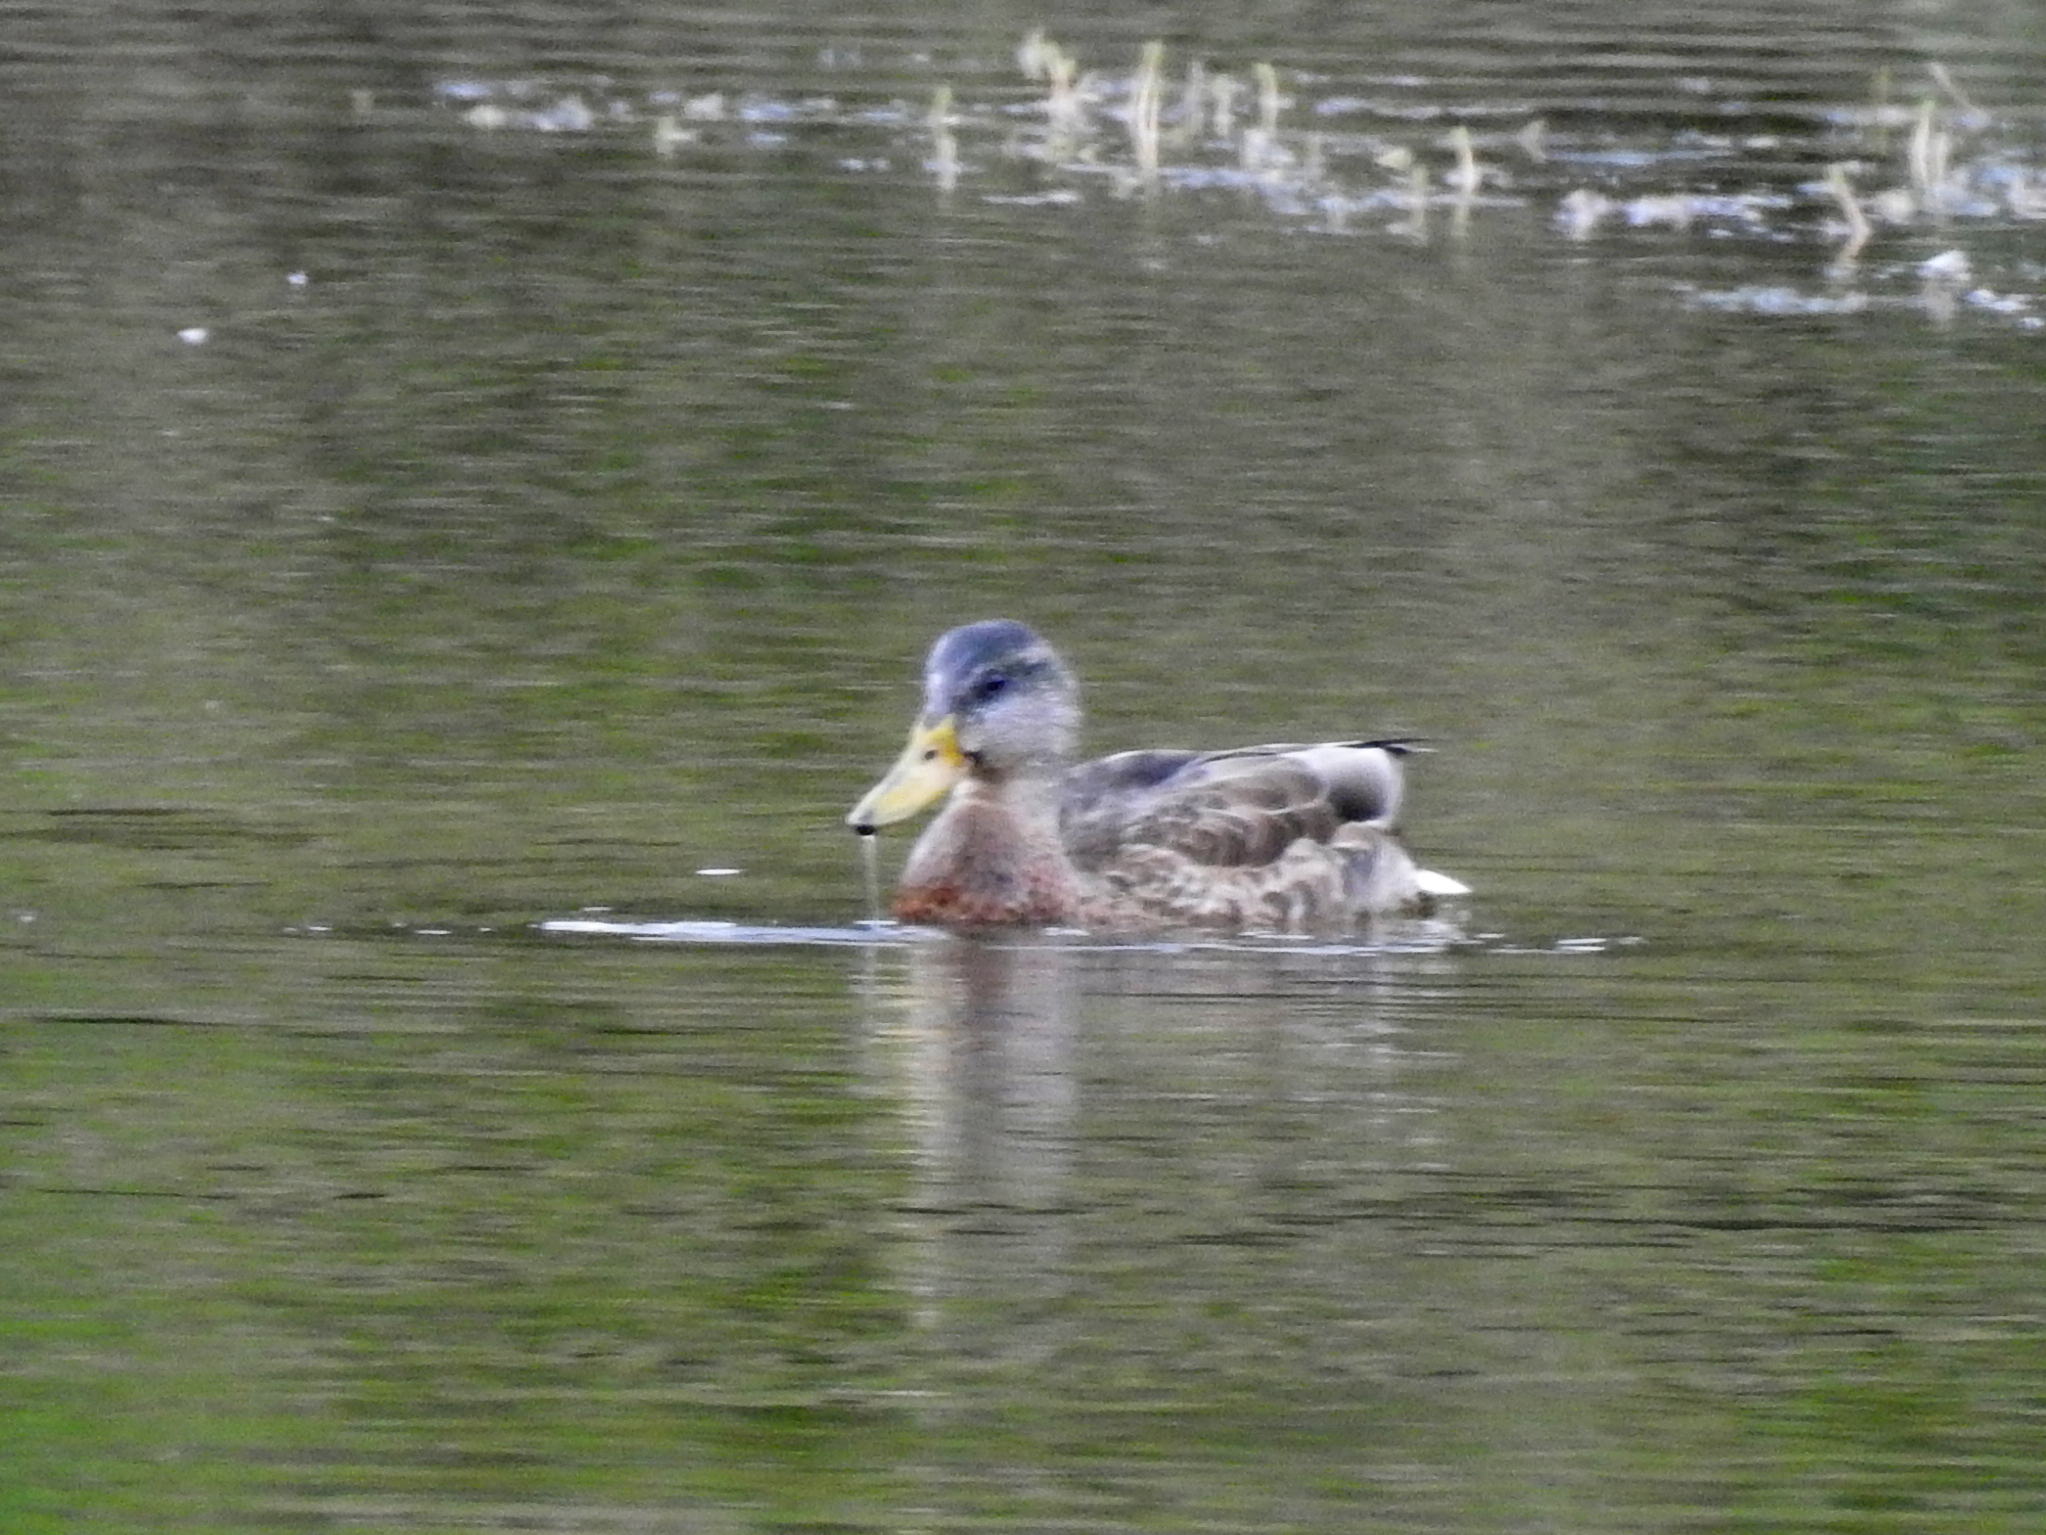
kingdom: Animalia
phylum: Chordata
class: Aves
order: Anseriformes
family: Anatidae
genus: Anas
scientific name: Anas platyrhynchos
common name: Mallard
